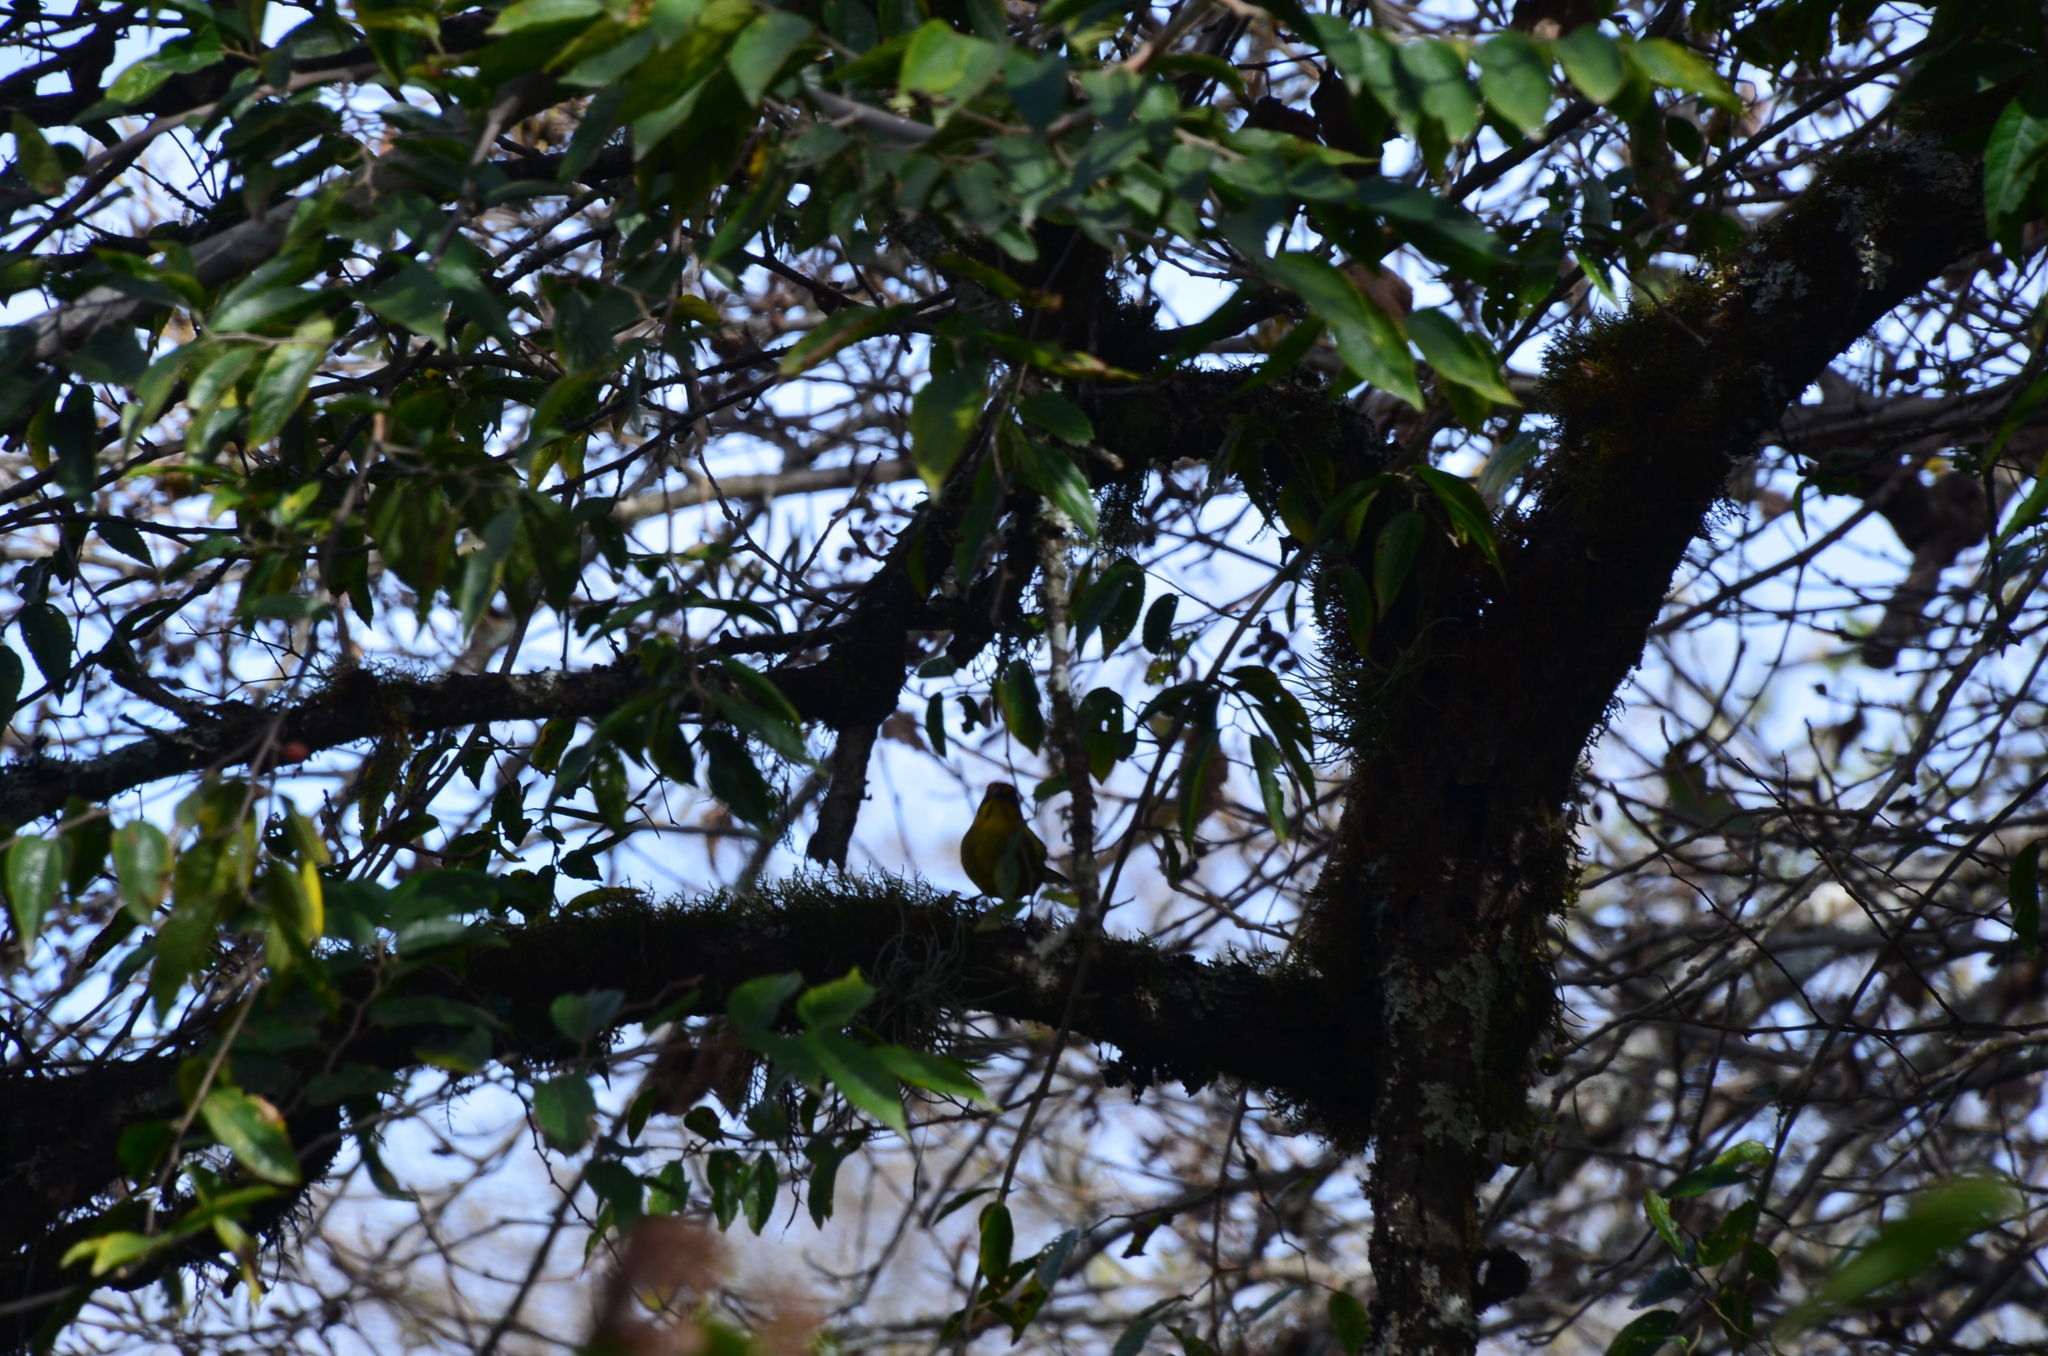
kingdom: Animalia
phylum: Chordata
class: Aves
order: Passeriformes
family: Passerellidae
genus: Atlapetes
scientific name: Atlapetes fulviceps
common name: Fulvous-headed brushfinch
